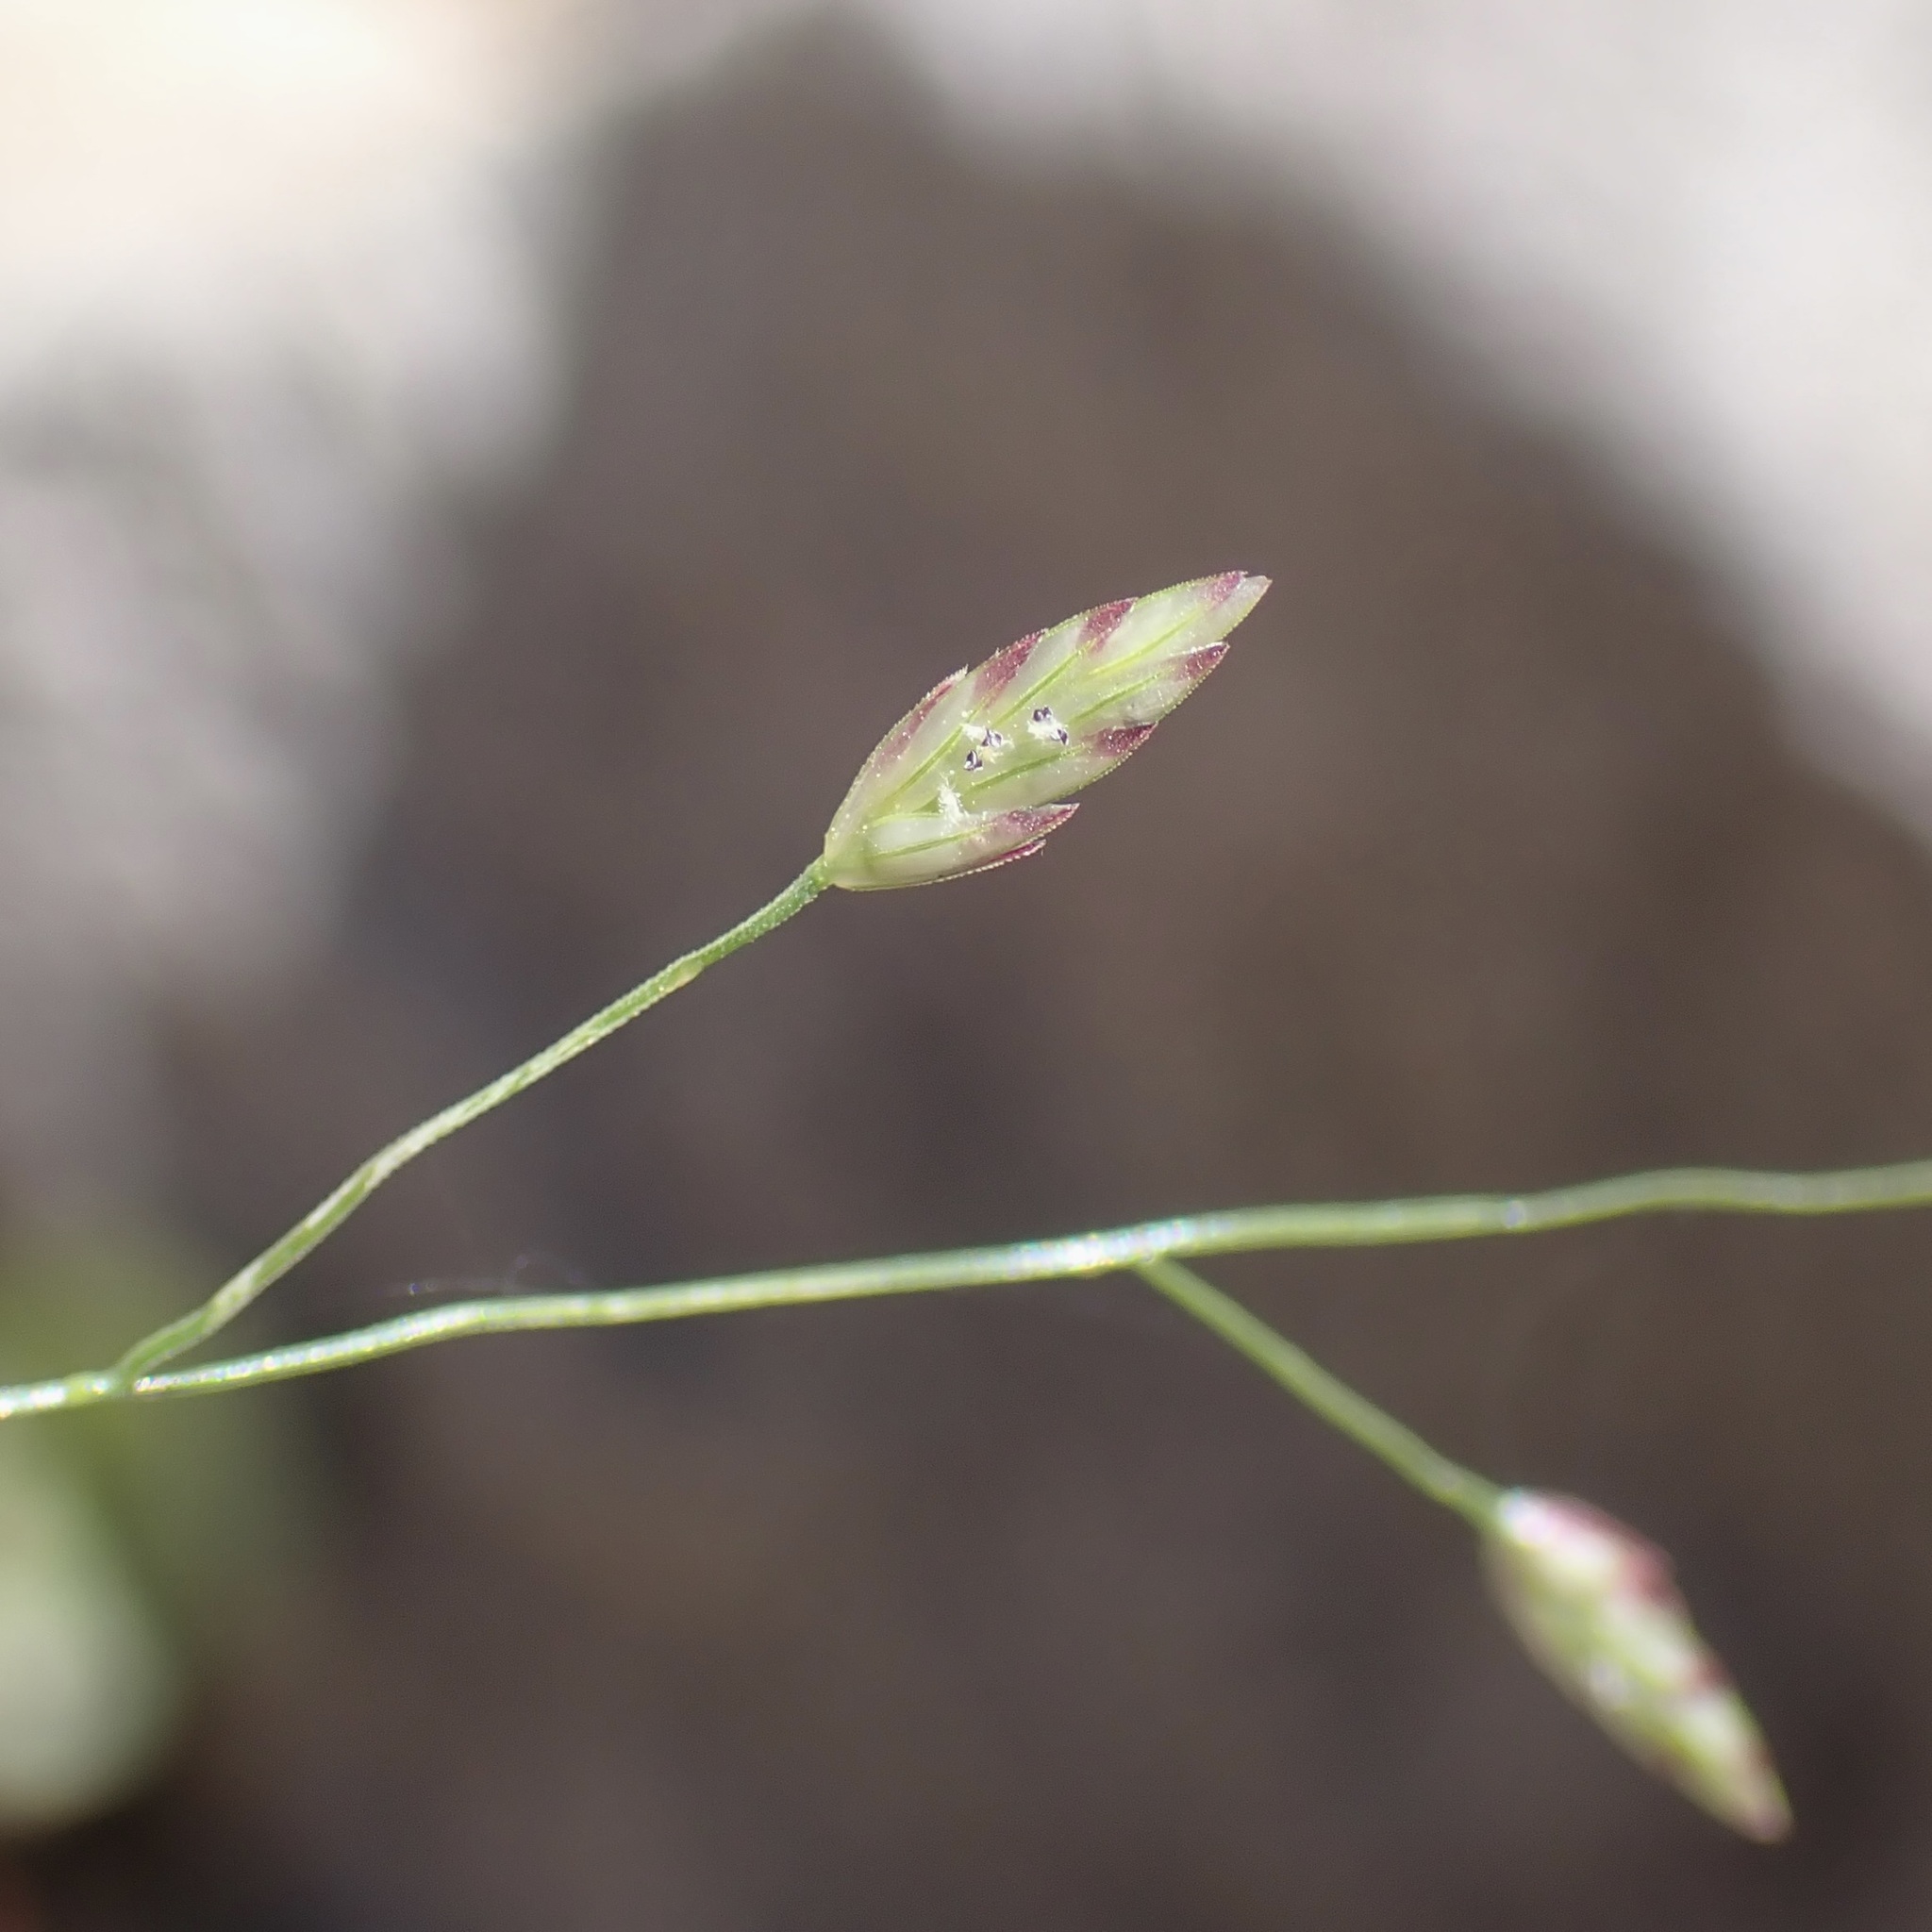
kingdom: Plantae
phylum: Tracheophyta
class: Liliopsida
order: Poales
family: Poaceae
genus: Eragrostis
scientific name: Eragrostis mexicana
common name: Mexican love grass
